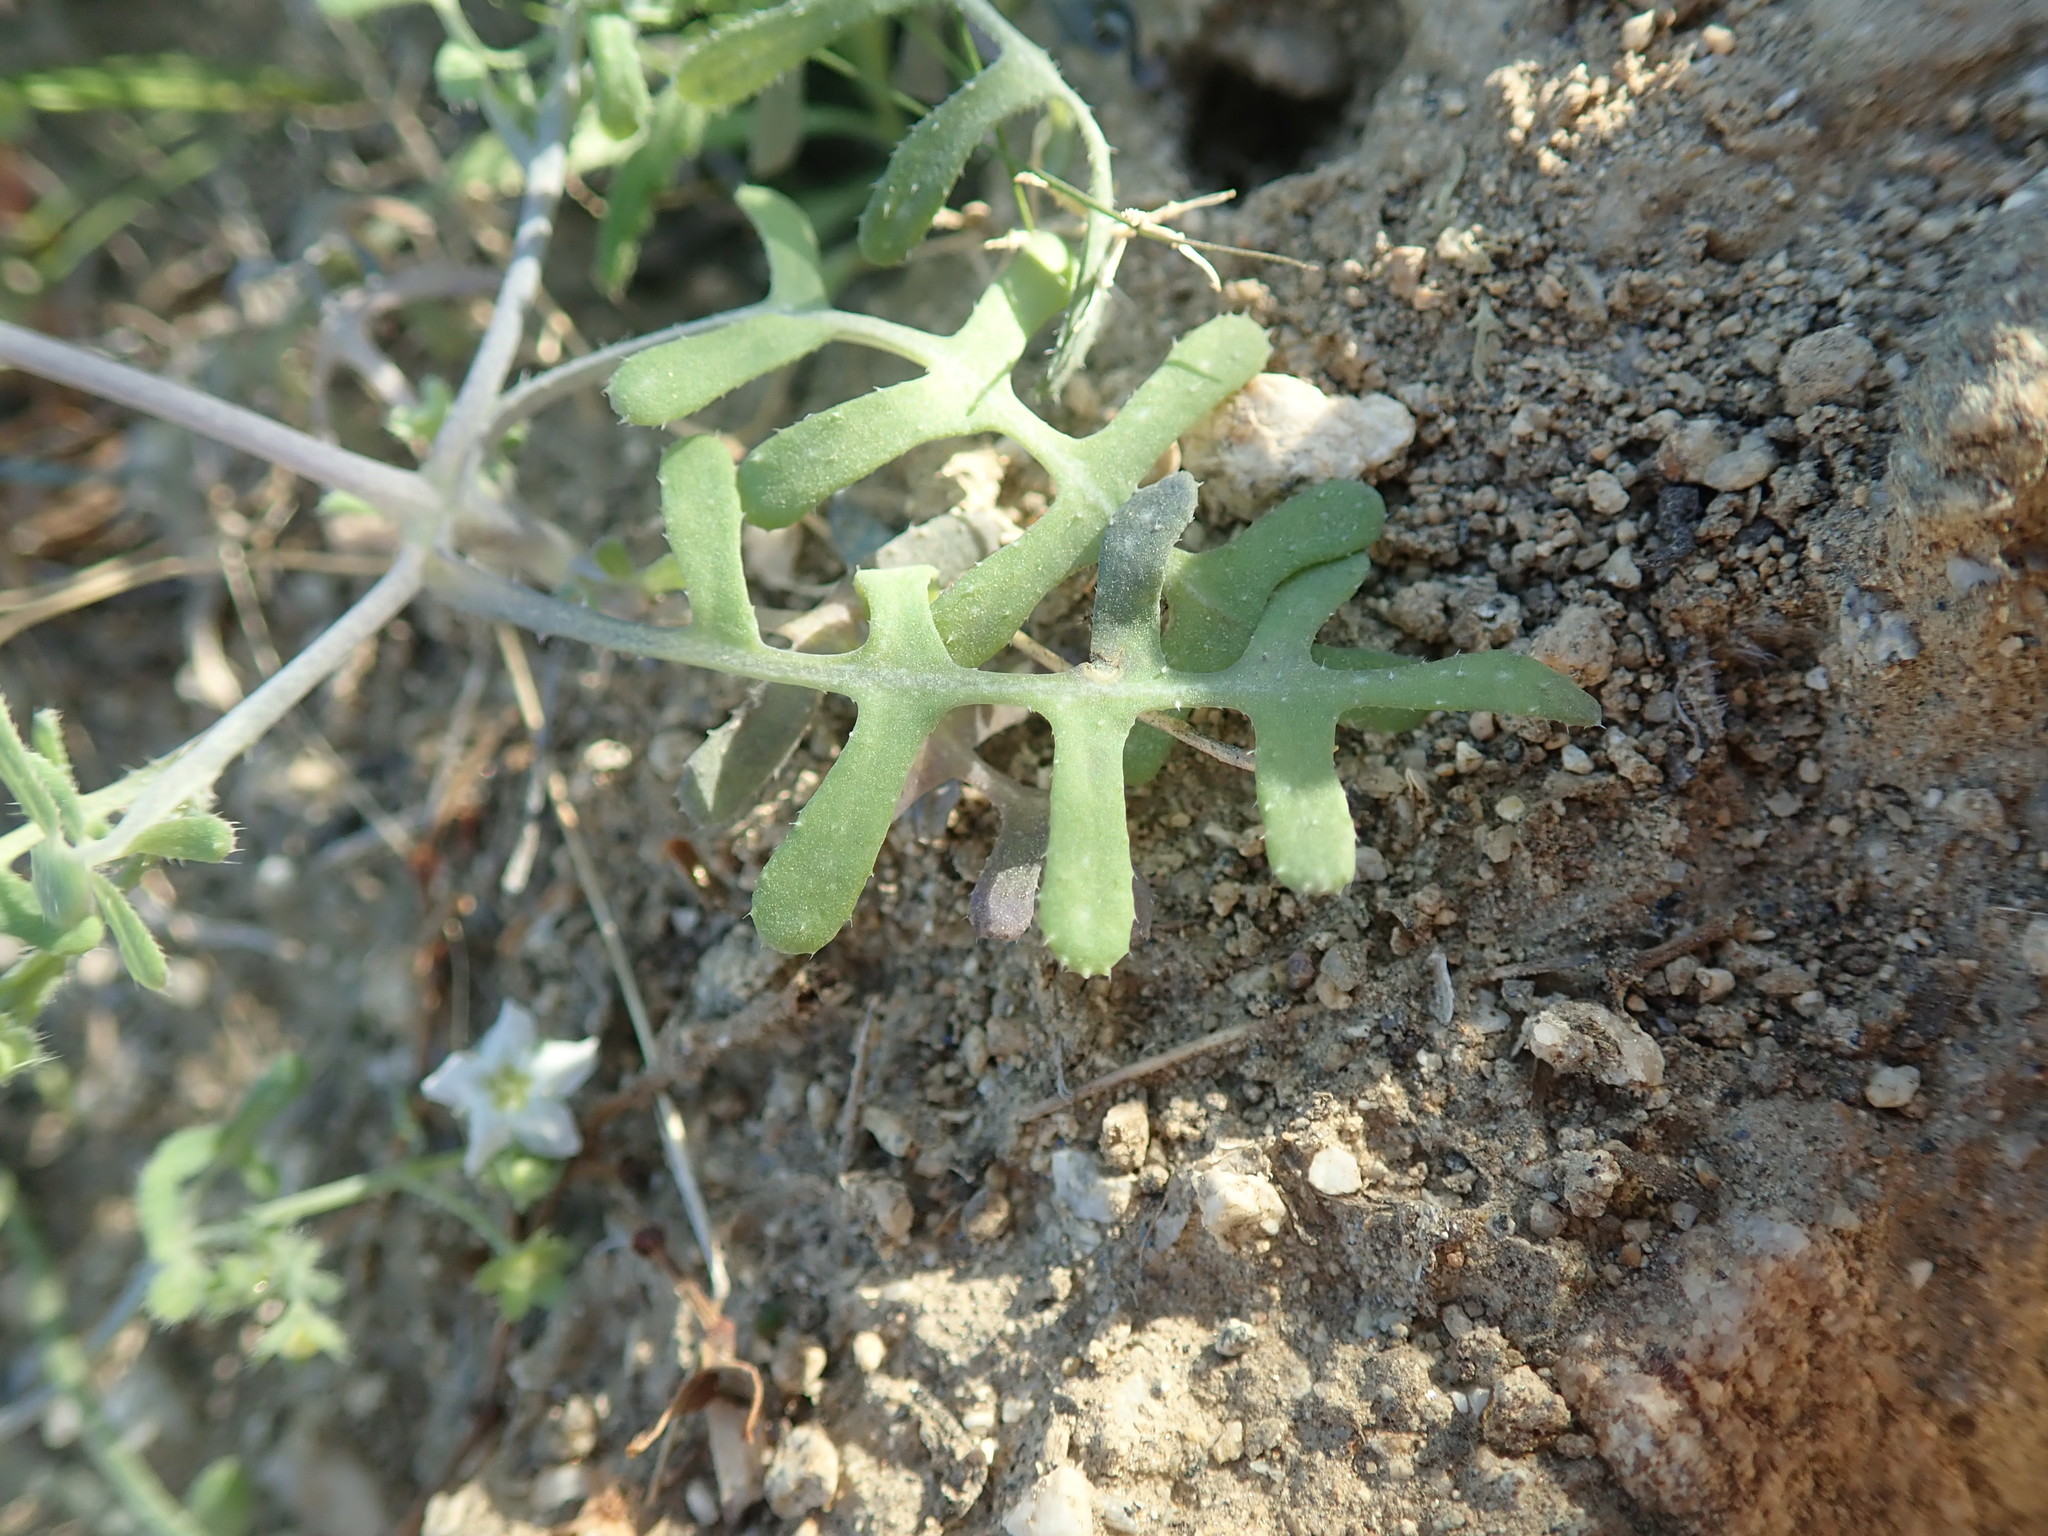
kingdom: Plantae
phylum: Tracheophyta
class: Magnoliopsida
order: Boraginales
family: Hydrophyllaceae
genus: Pholistoma
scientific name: Pholistoma membranaceum
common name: White fiesta-flower
